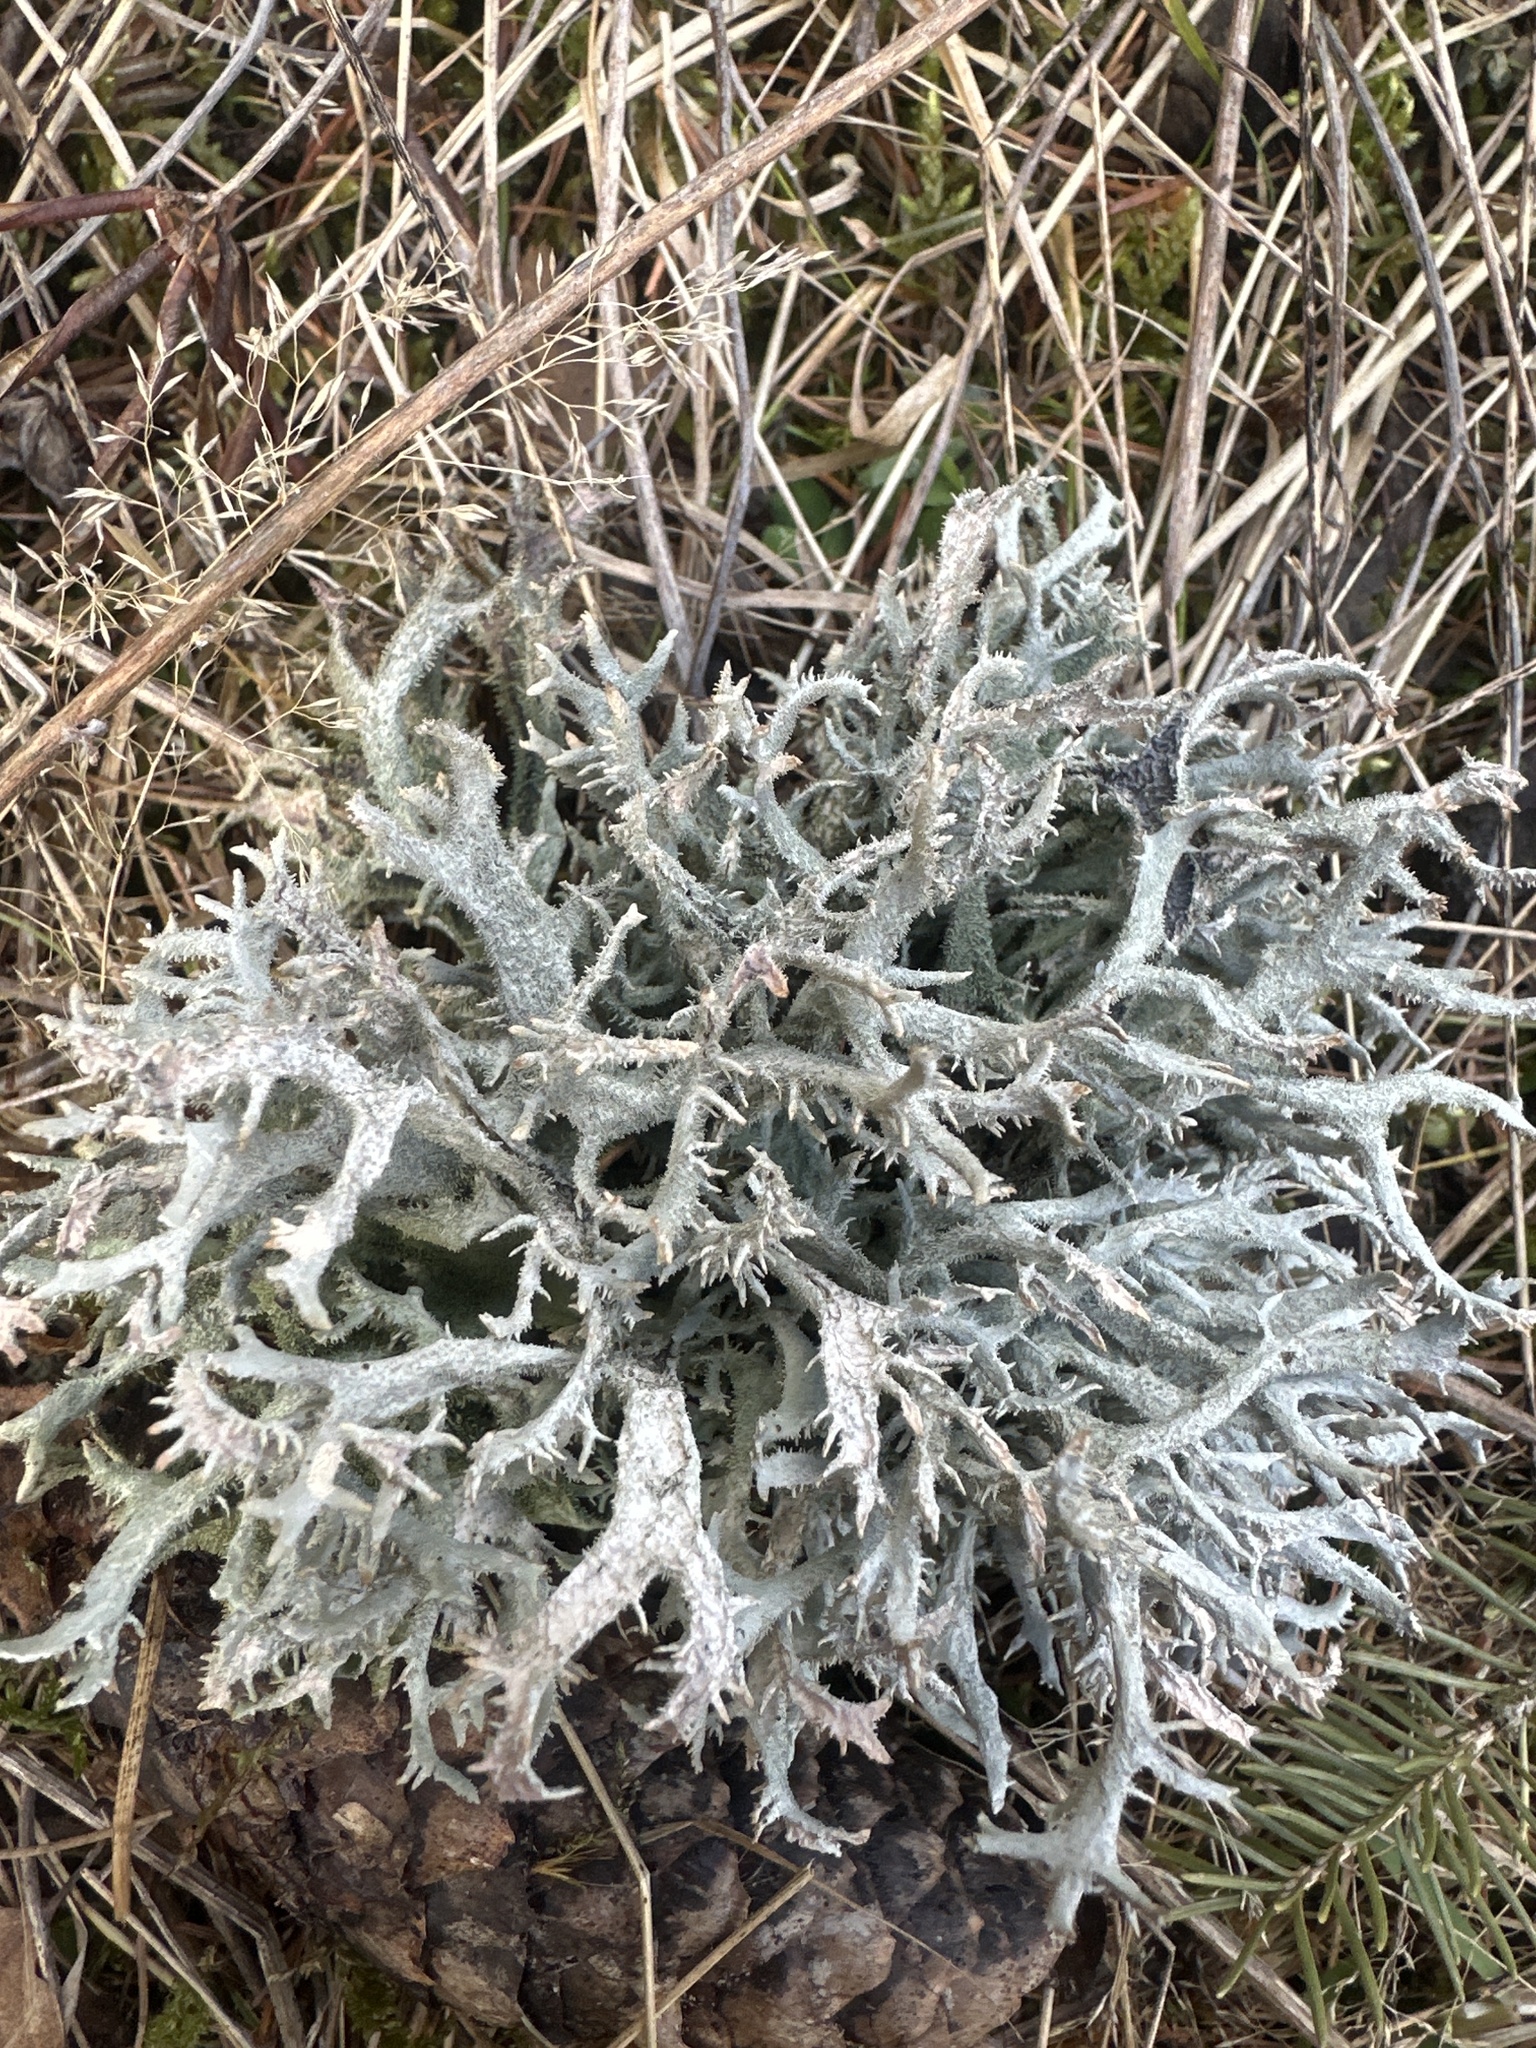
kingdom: Fungi
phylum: Ascomycota
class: Lecanoromycetes
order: Lecanorales
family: Parmeliaceae
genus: Pseudevernia
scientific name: Pseudevernia furfuracea
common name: Tree moss
